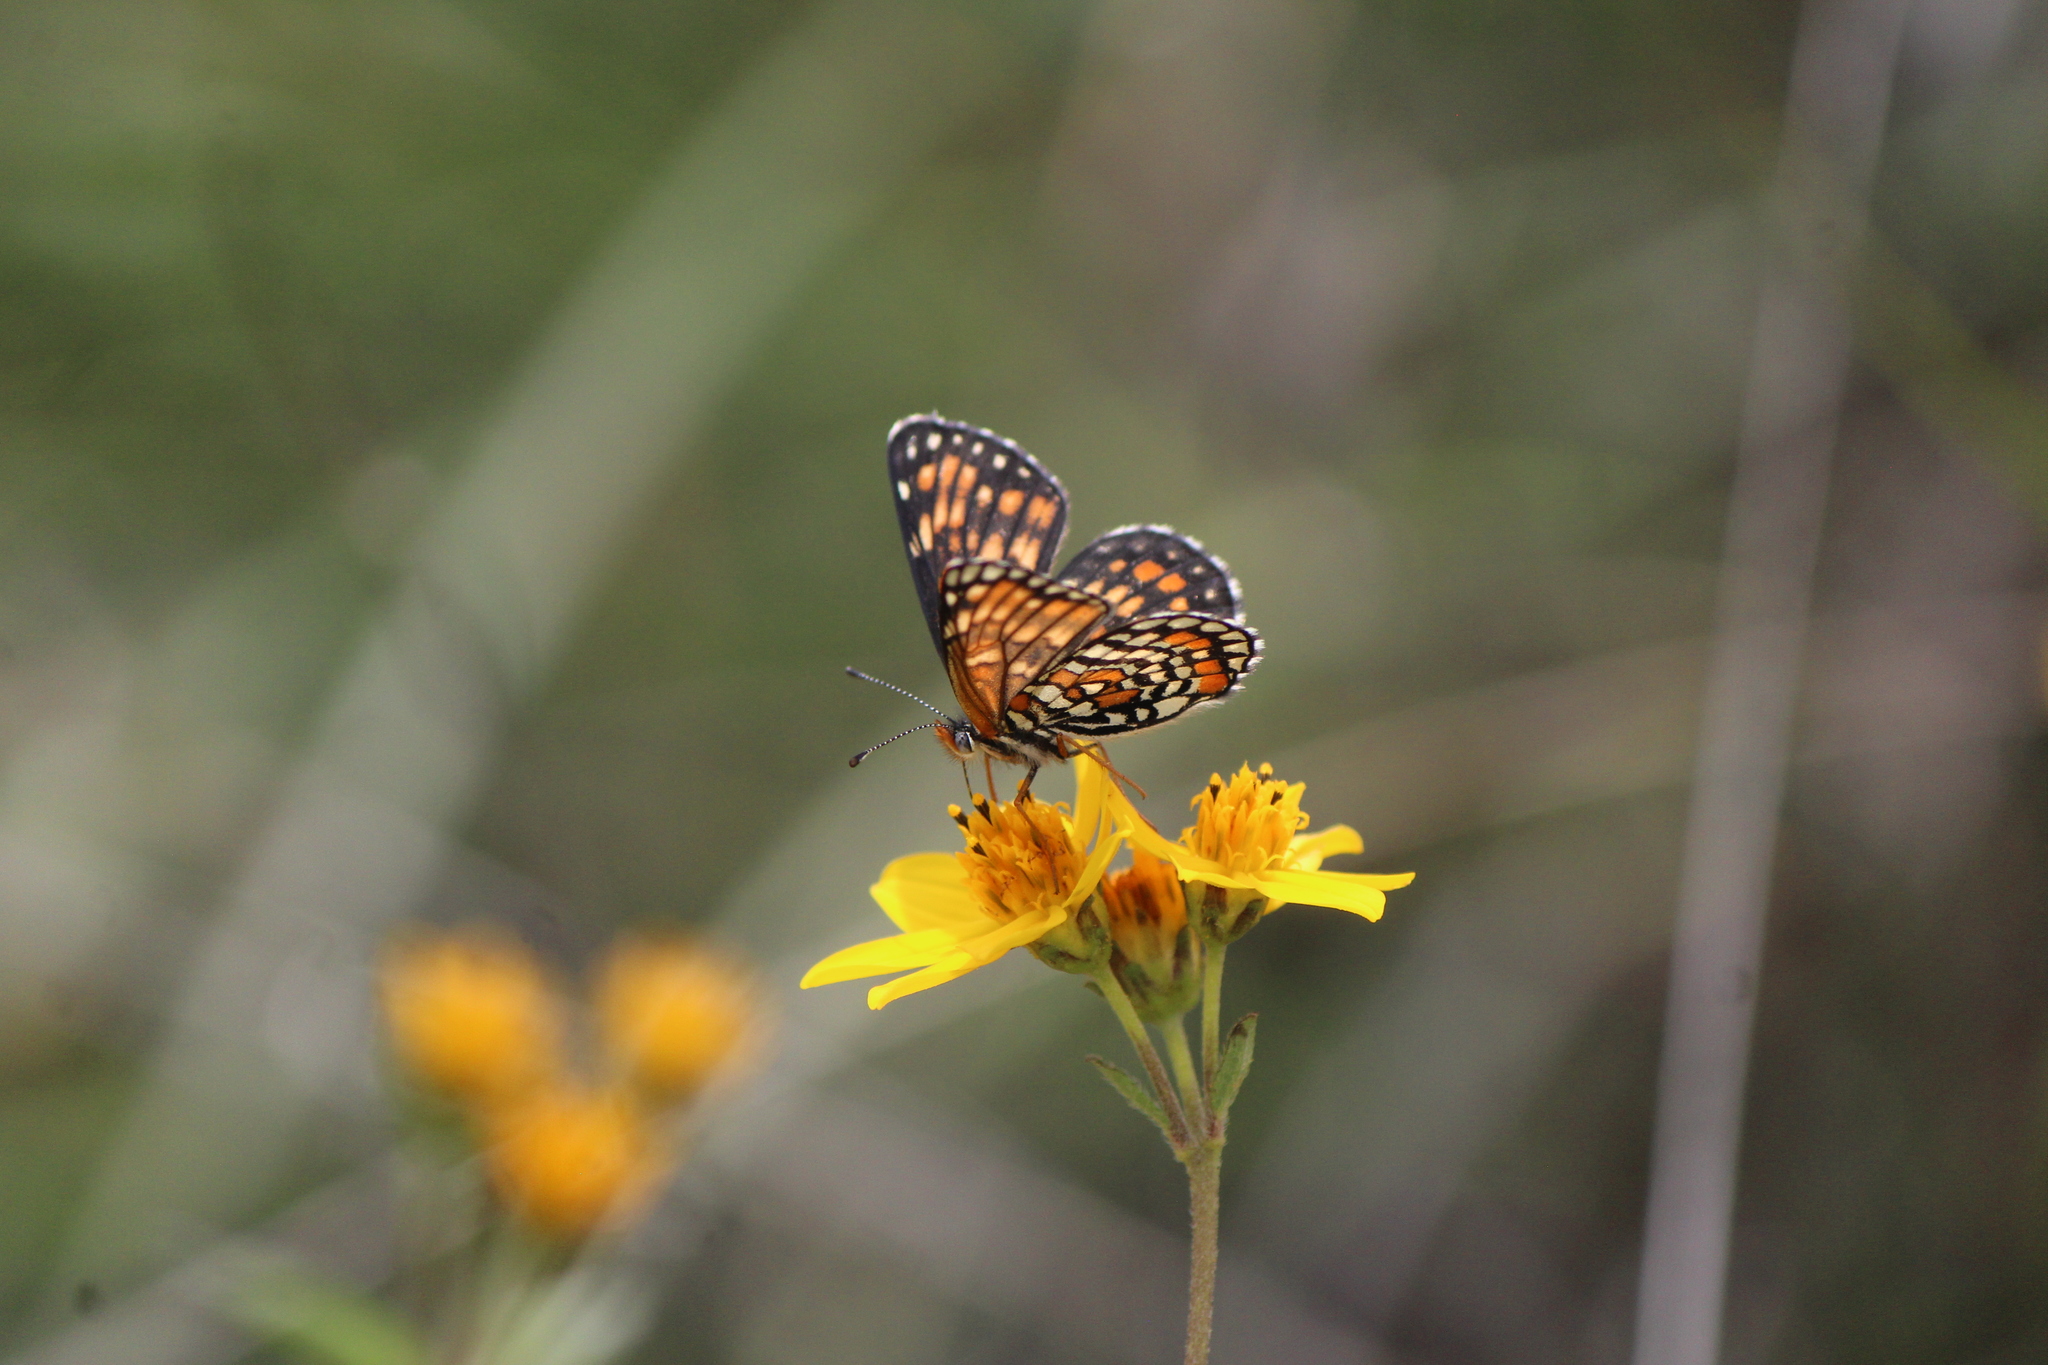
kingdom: Animalia
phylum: Arthropoda
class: Insecta
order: Lepidoptera
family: Nymphalidae
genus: Thessalia
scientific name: Thessalia theona
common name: Nymphalid moth
